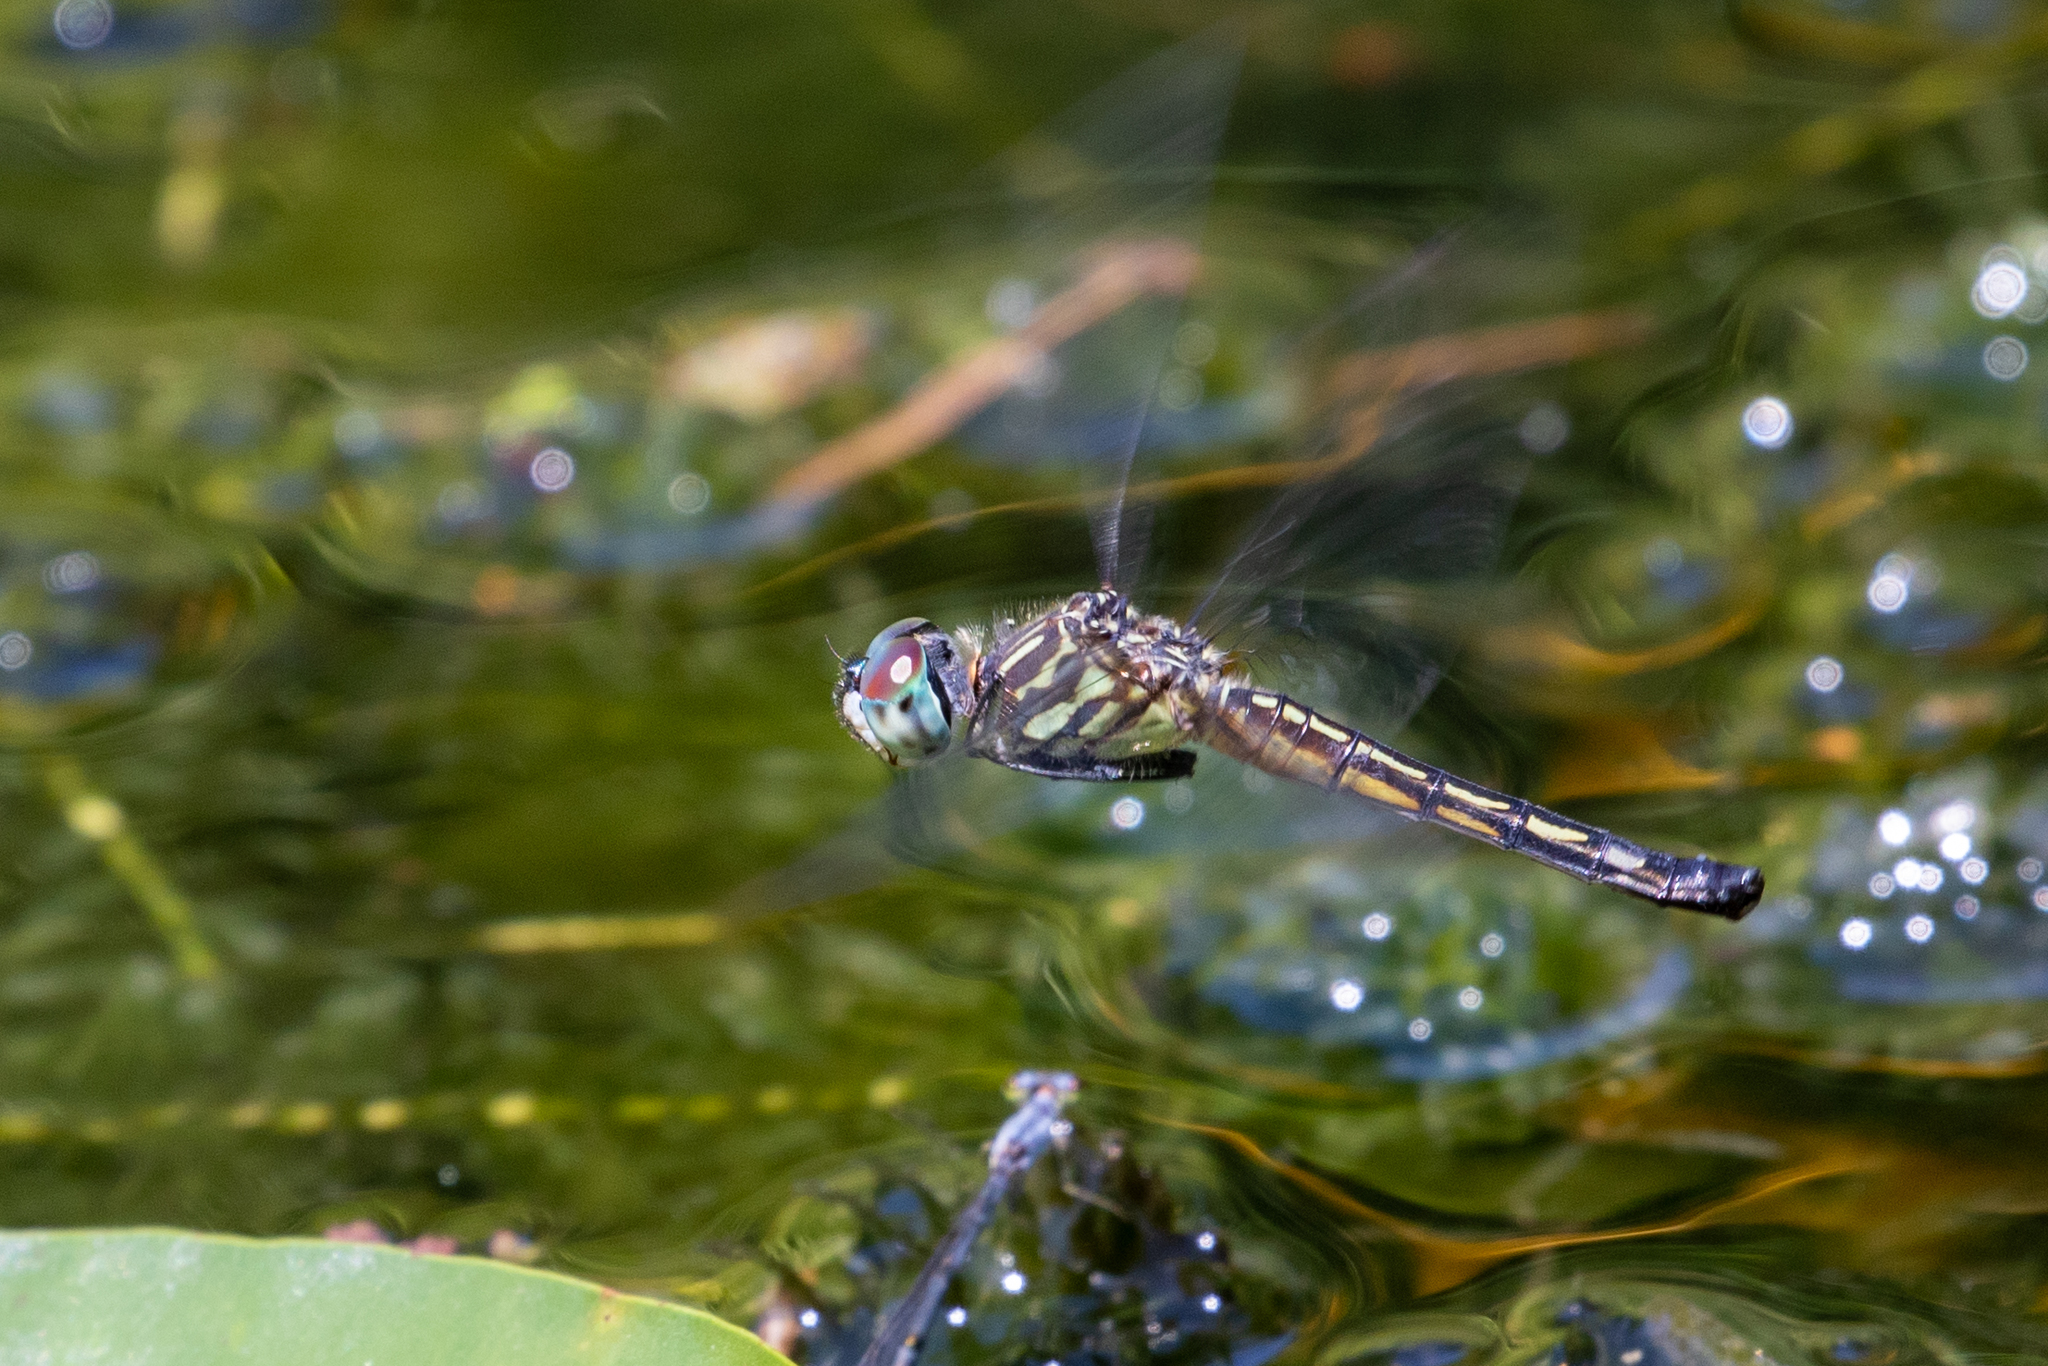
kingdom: Animalia
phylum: Arthropoda
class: Insecta
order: Odonata
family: Libellulidae
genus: Pachydiplax
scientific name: Pachydiplax longipennis
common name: Blue dasher
